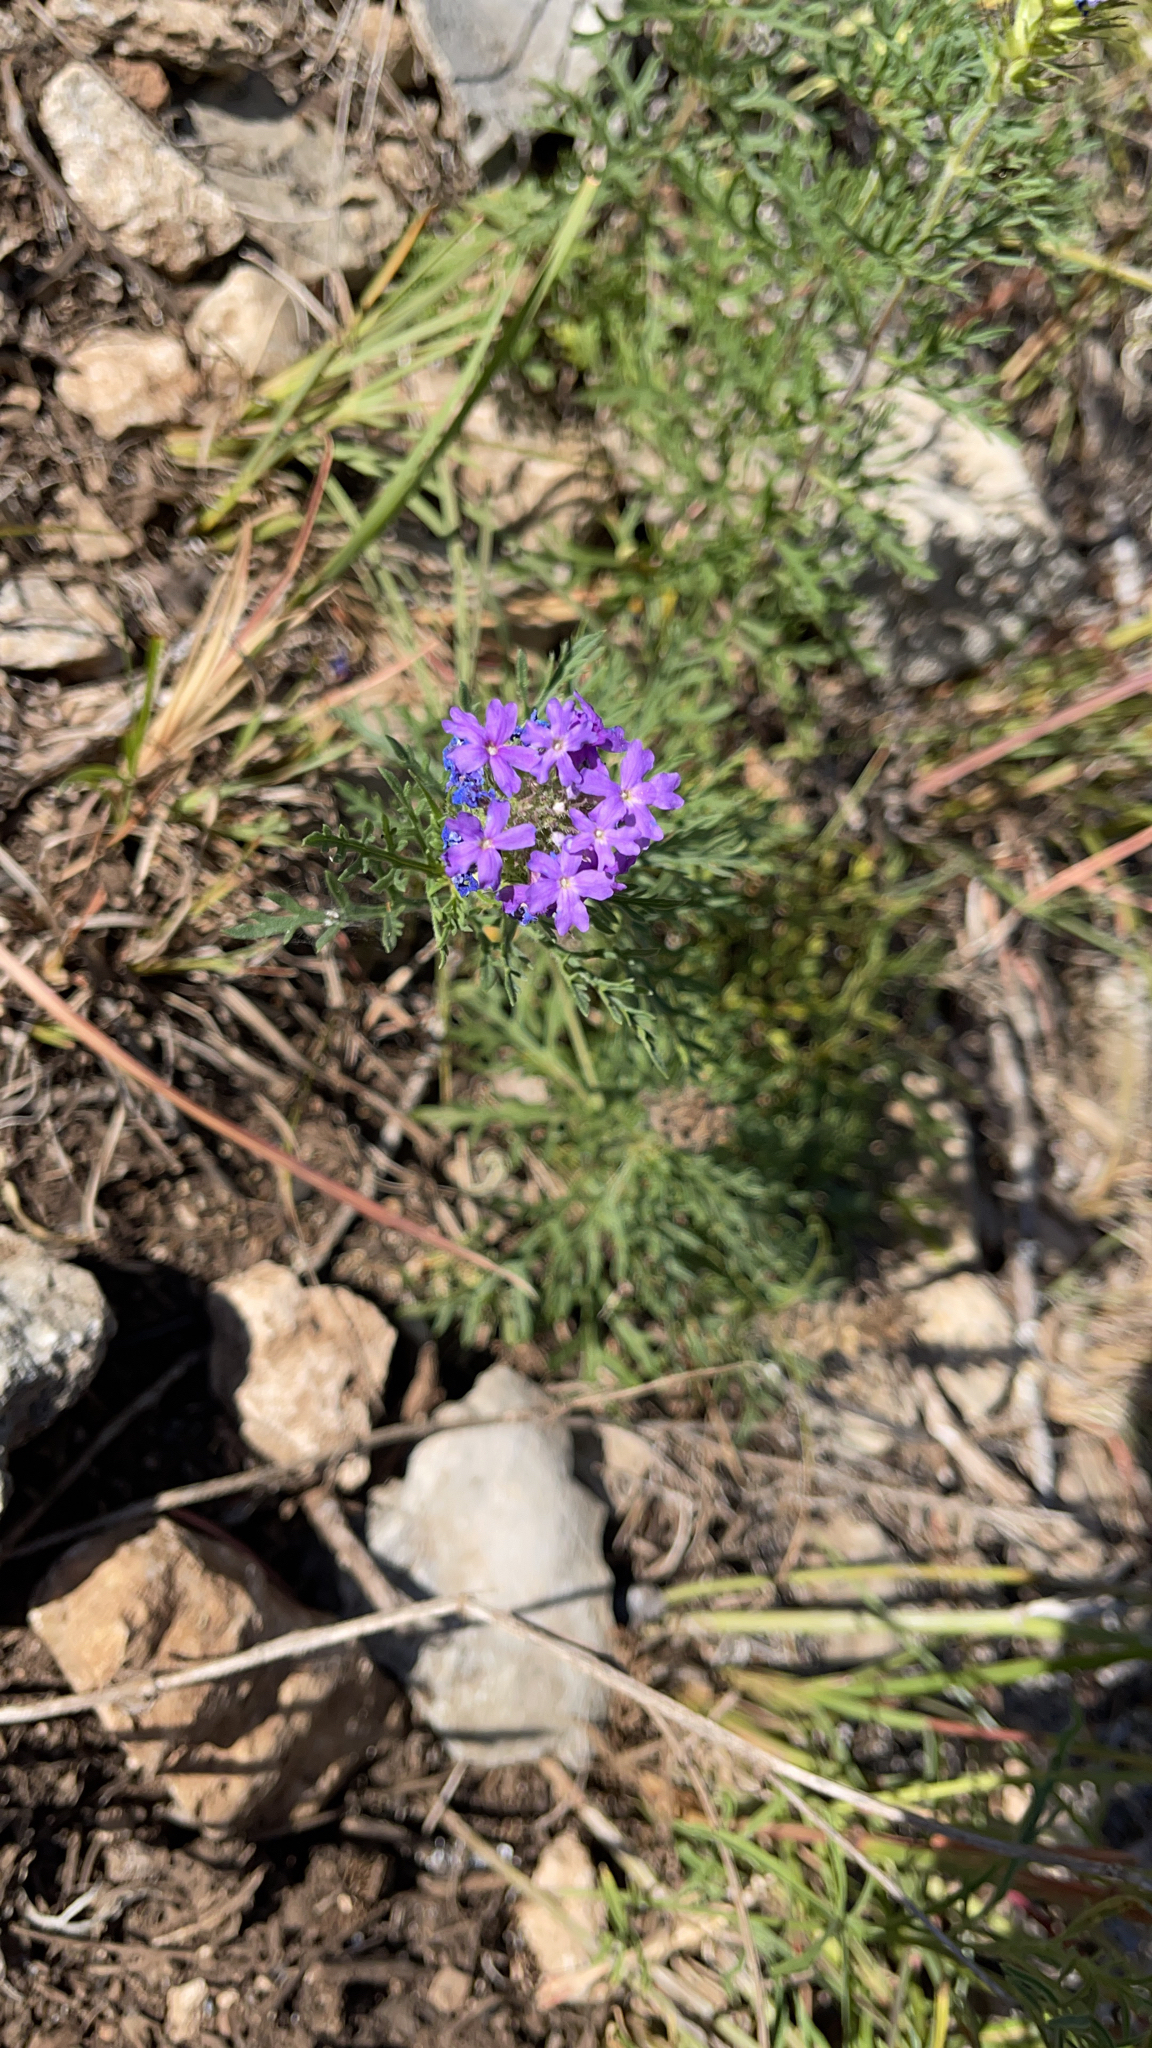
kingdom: Plantae
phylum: Tracheophyta
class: Magnoliopsida
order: Lamiales
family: Verbenaceae
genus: Verbena
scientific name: Verbena bipinnatifida
